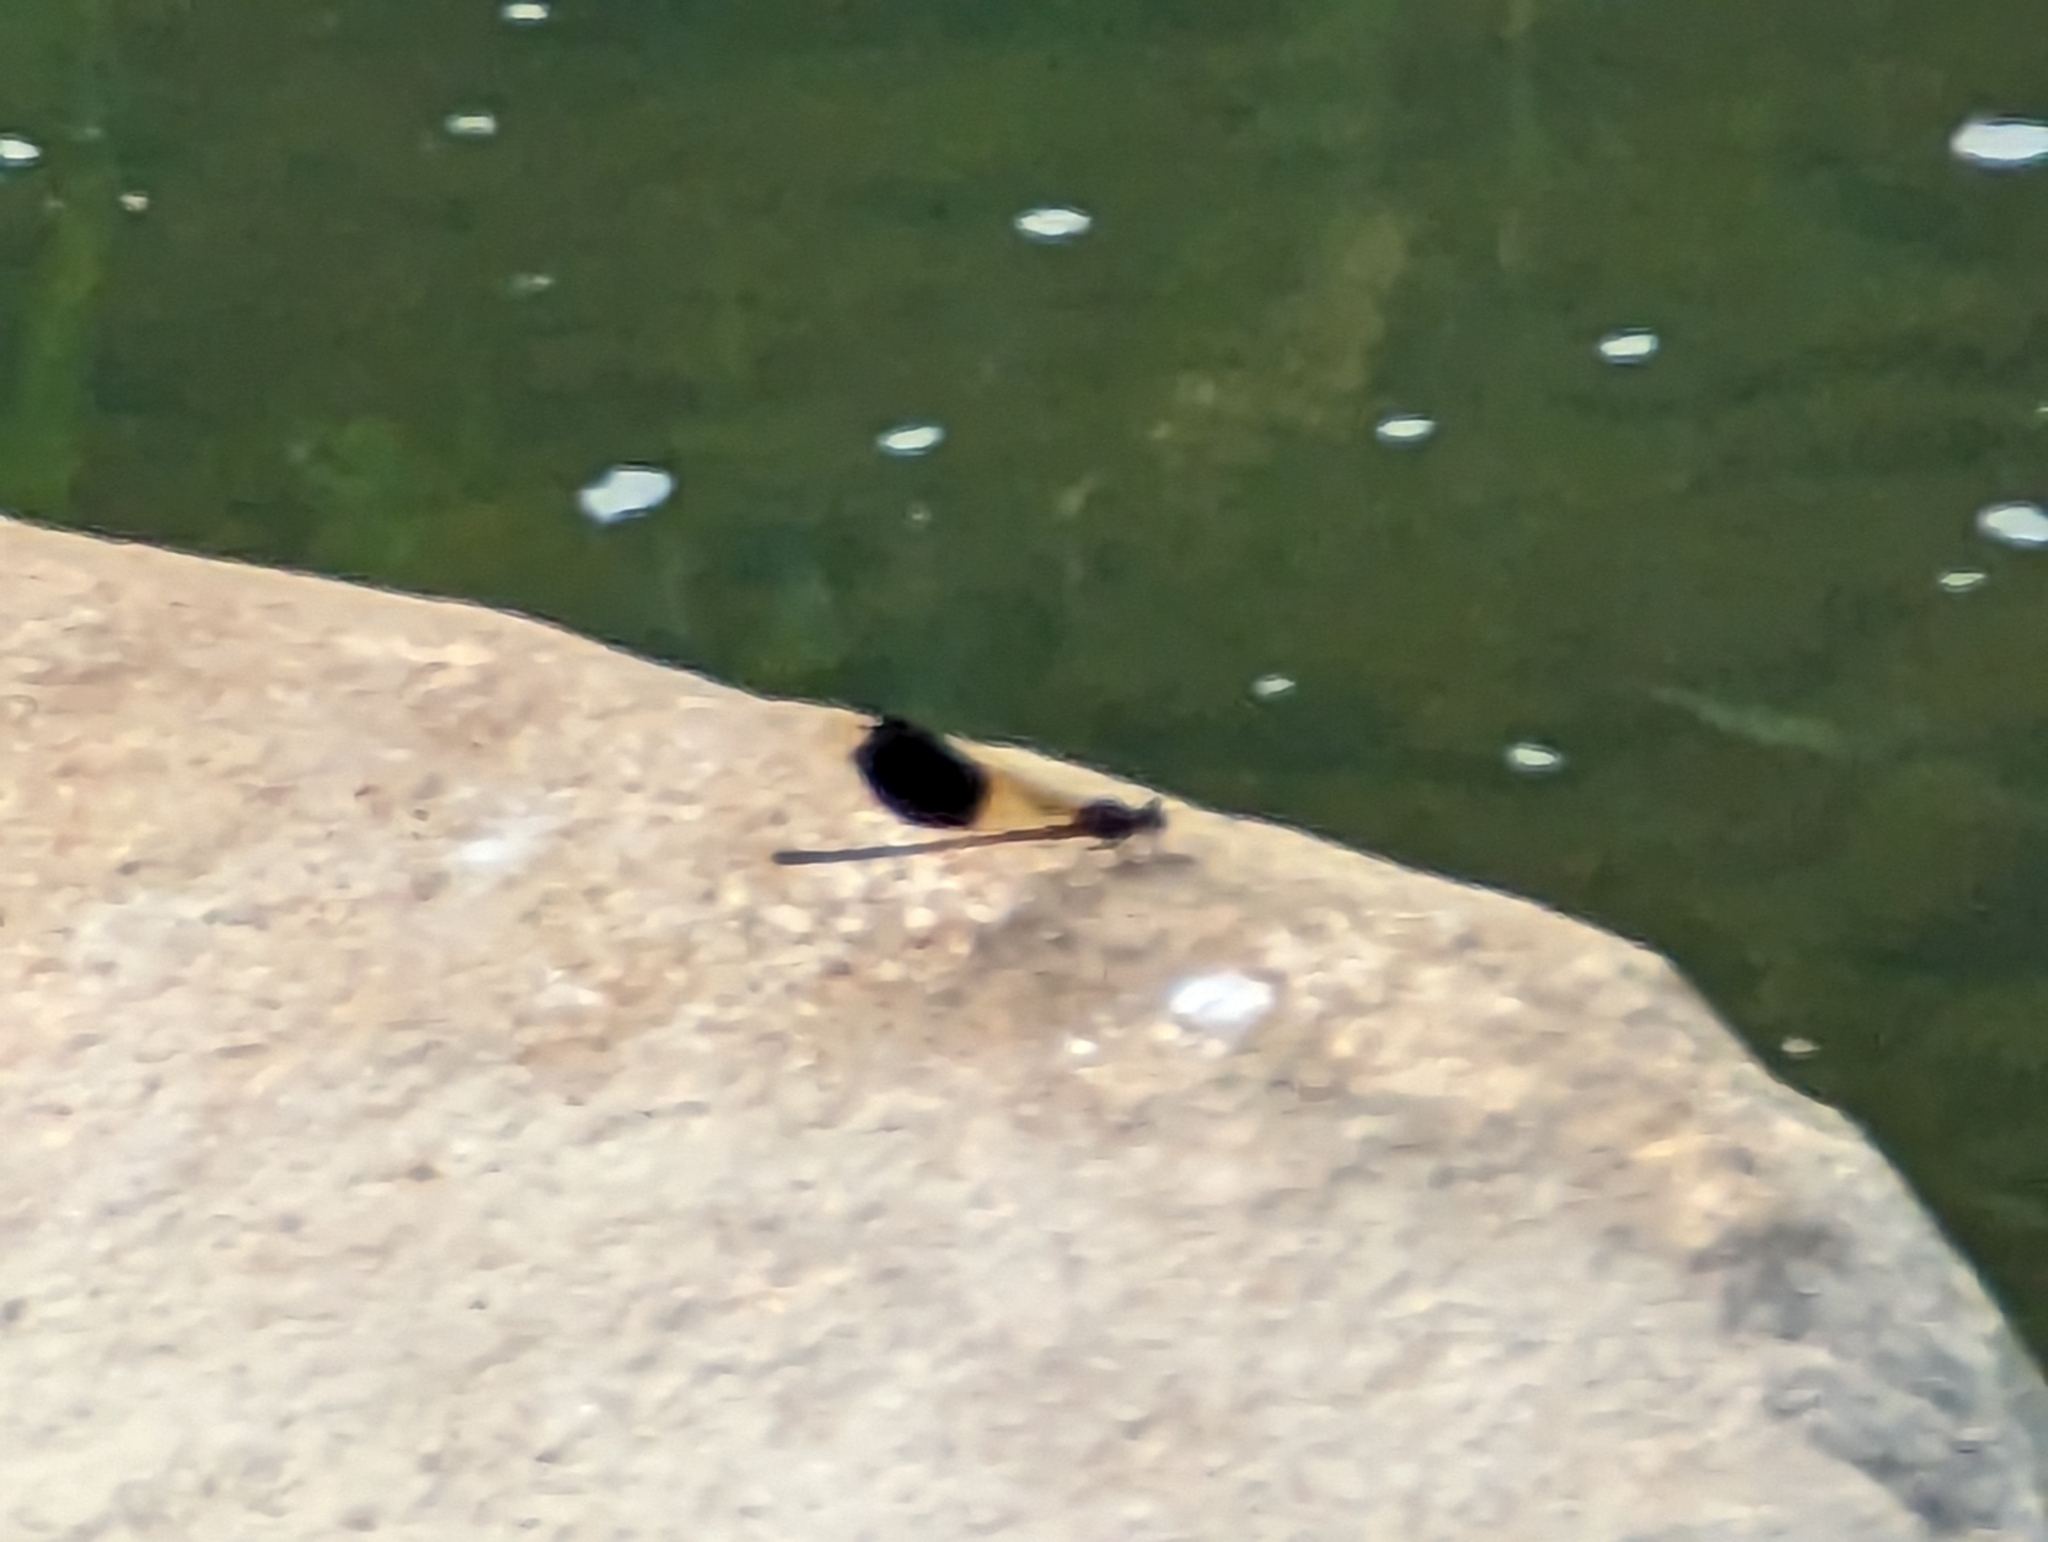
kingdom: Animalia
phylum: Arthropoda
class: Insecta
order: Odonata
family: Euphaeidae
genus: Euphaea
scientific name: Euphaea formosa
